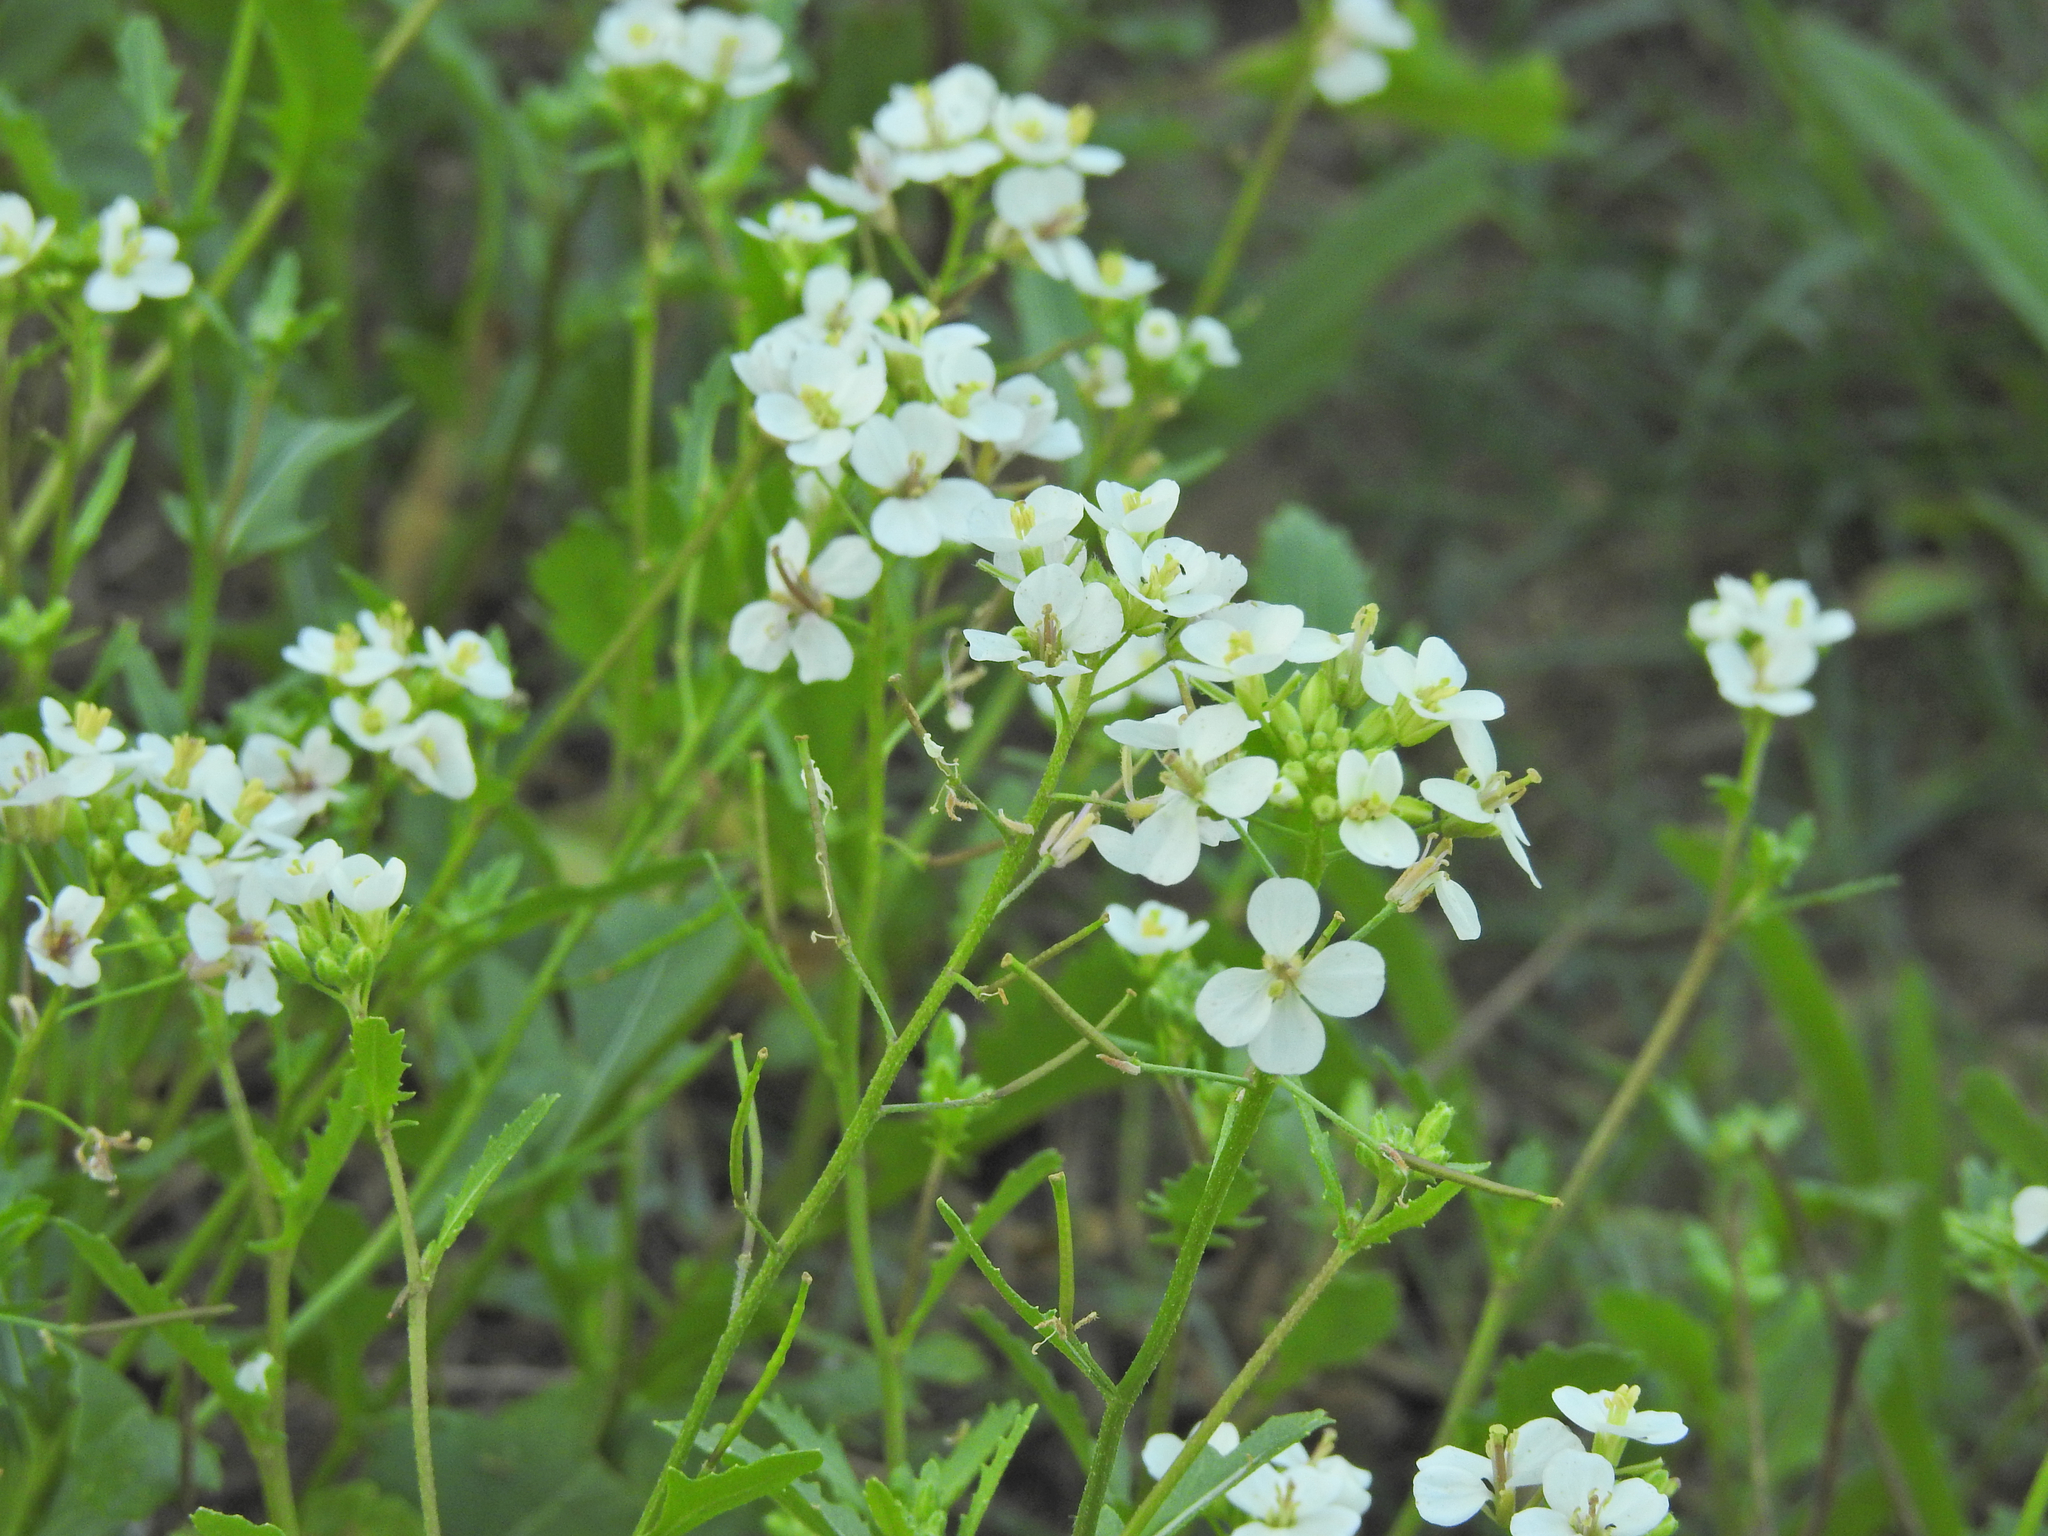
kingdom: Plantae
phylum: Tracheophyta
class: Magnoliopsida
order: Brassicales
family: Brassicaceae
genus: Diplotaxis
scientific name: Diplotaxis erucoides
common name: White rocket
